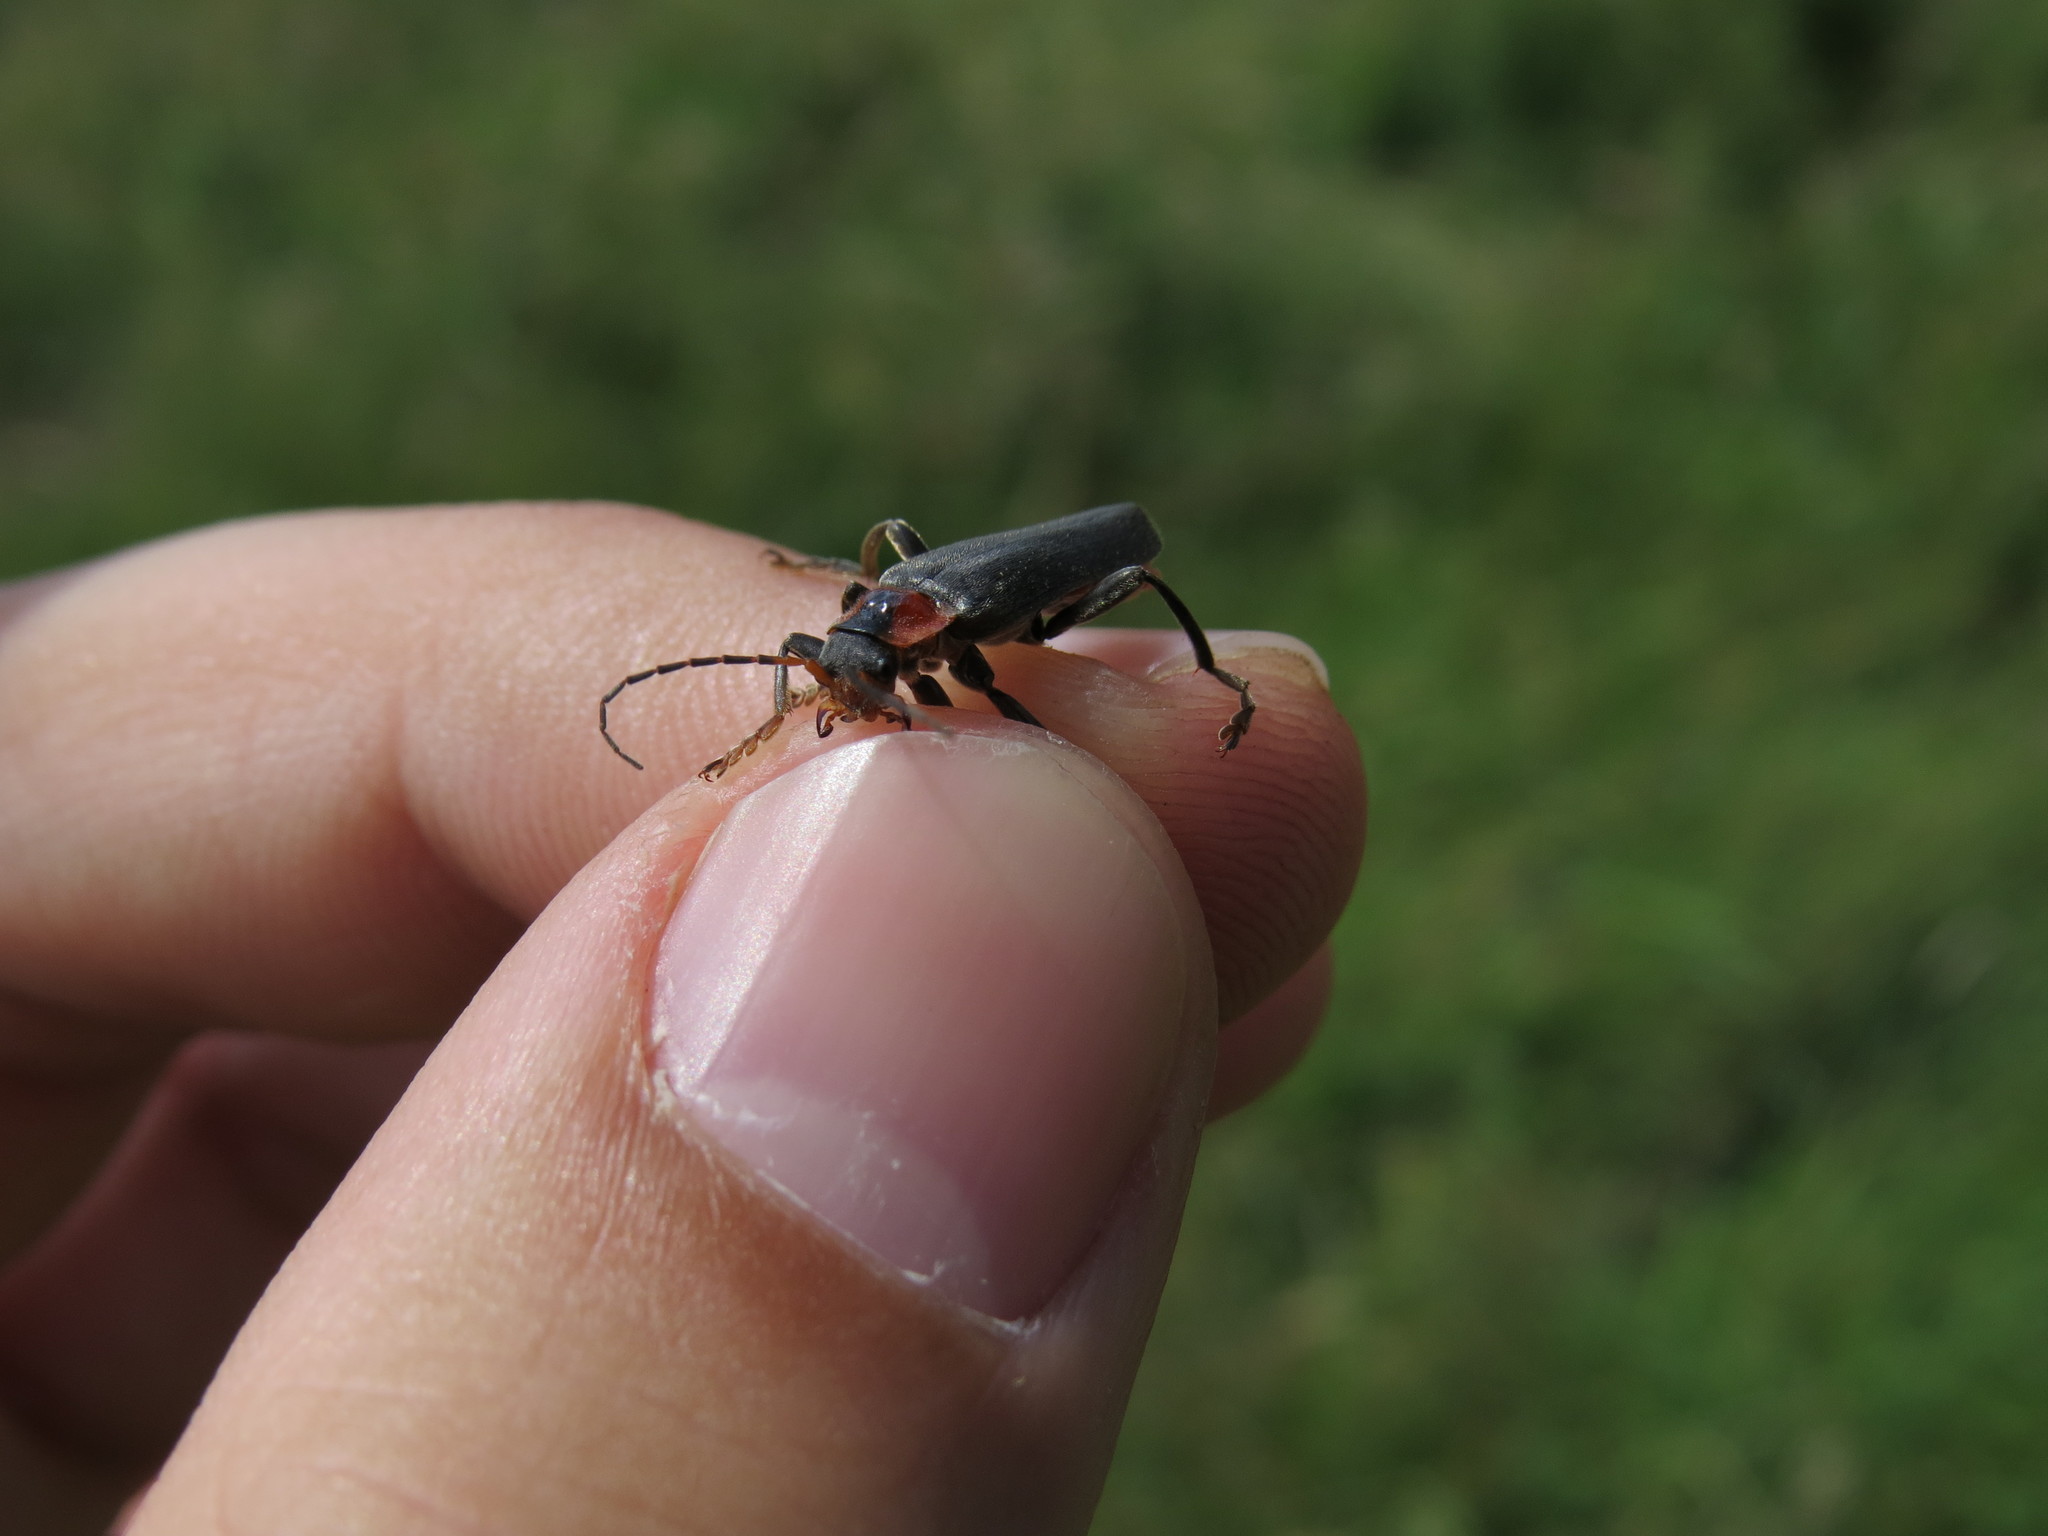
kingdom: Animalia
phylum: Arthropoda
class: Insecta
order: Coleoptera
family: Cantharidae
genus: Cantharis
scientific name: Cantharis fusca
